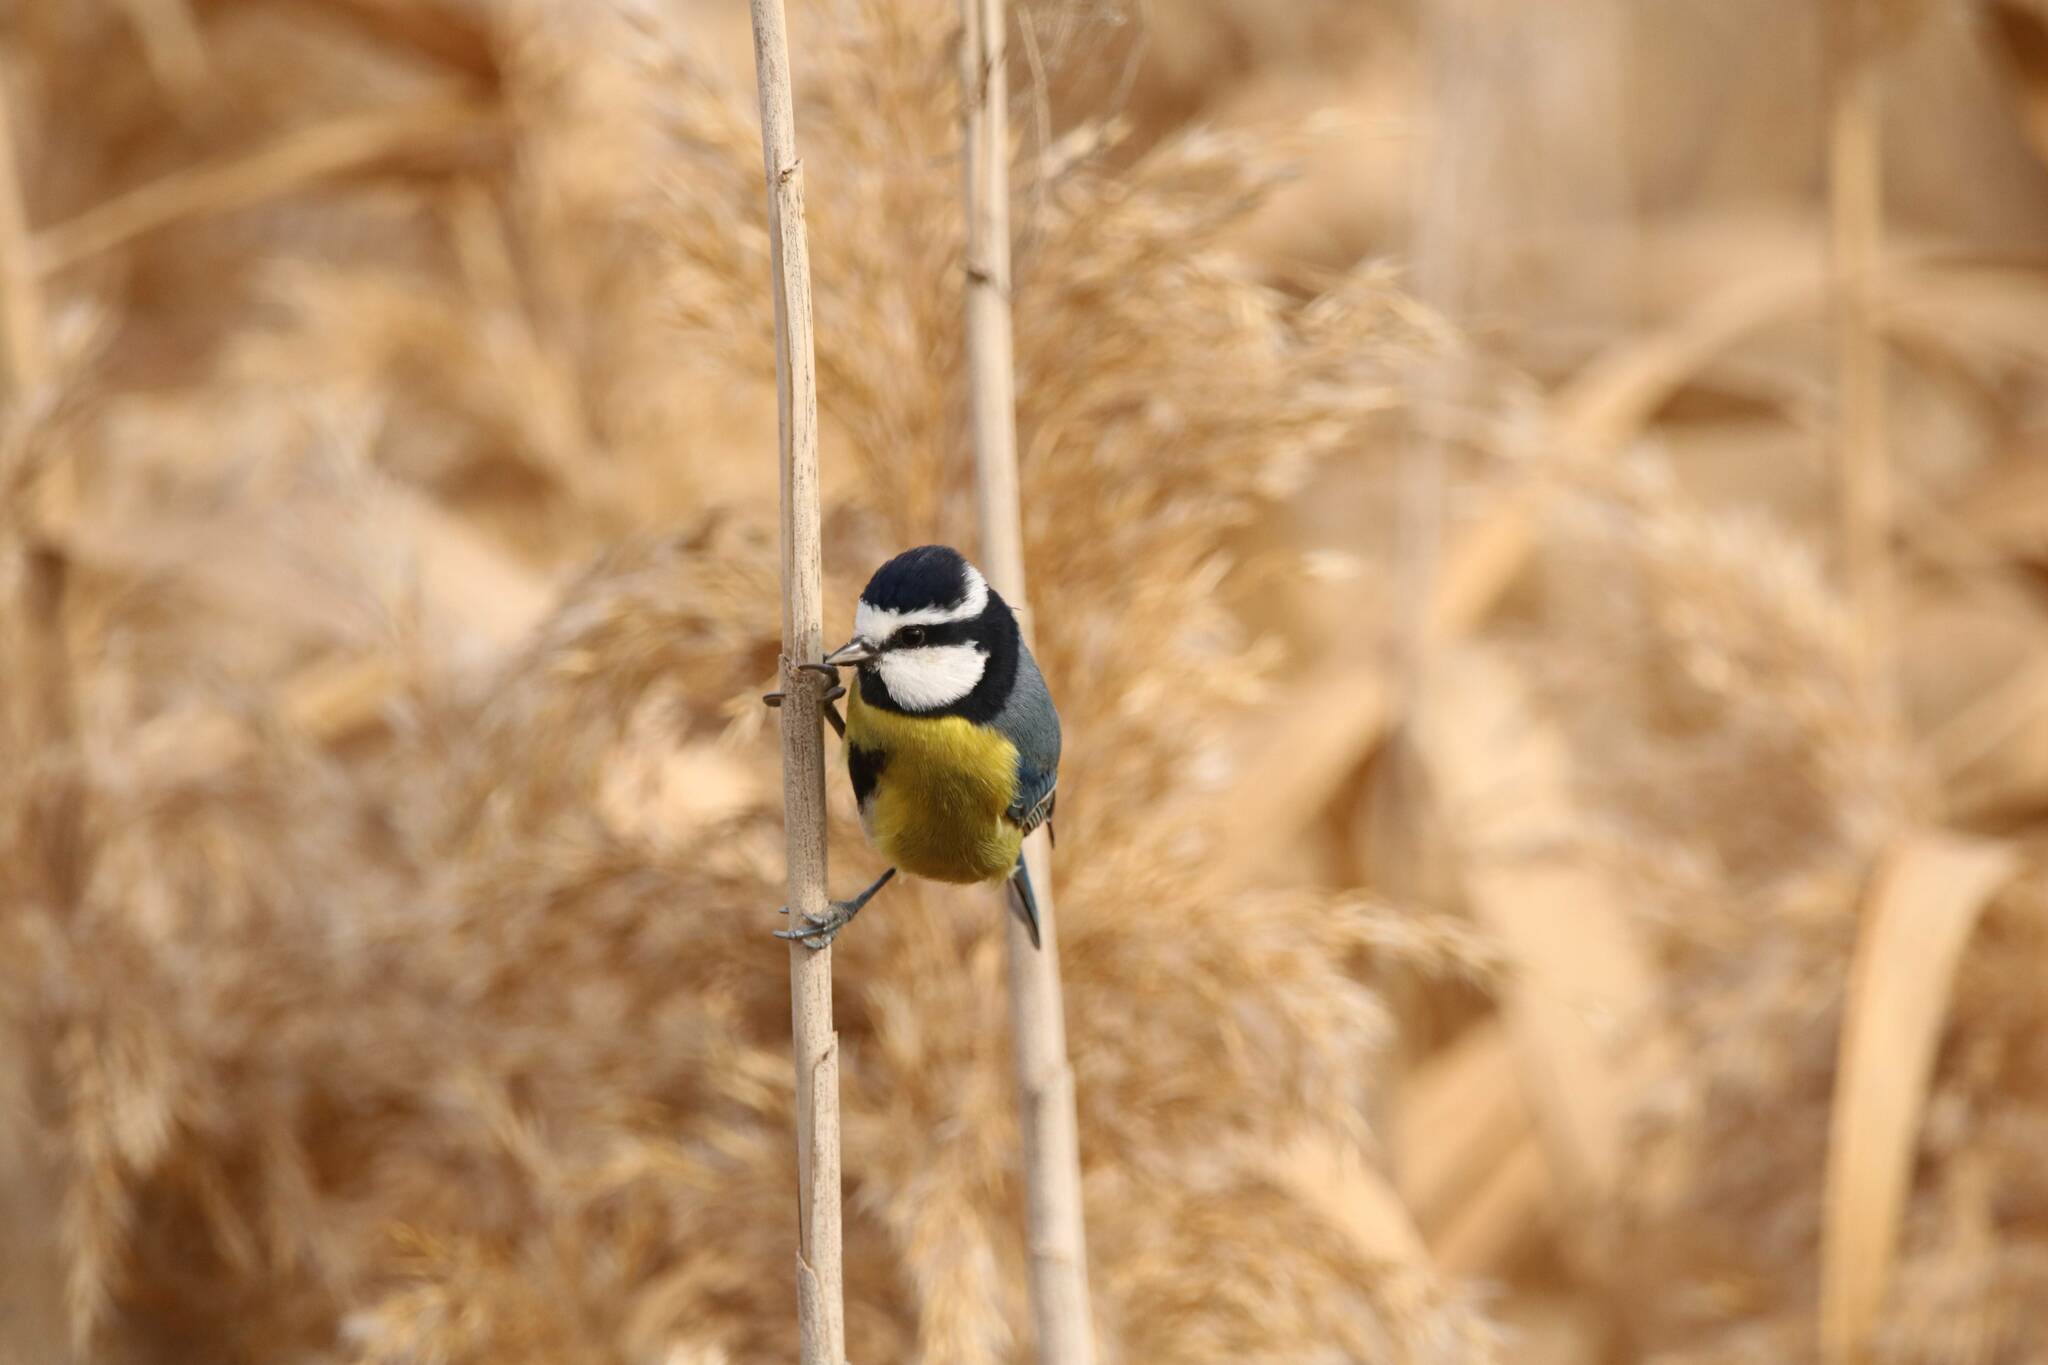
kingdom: Animalia
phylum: Chordata
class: Aves
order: Passeriformes
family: Paridae
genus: Cyanistes
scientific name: Cyanistes teneriffae
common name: African blue tit
